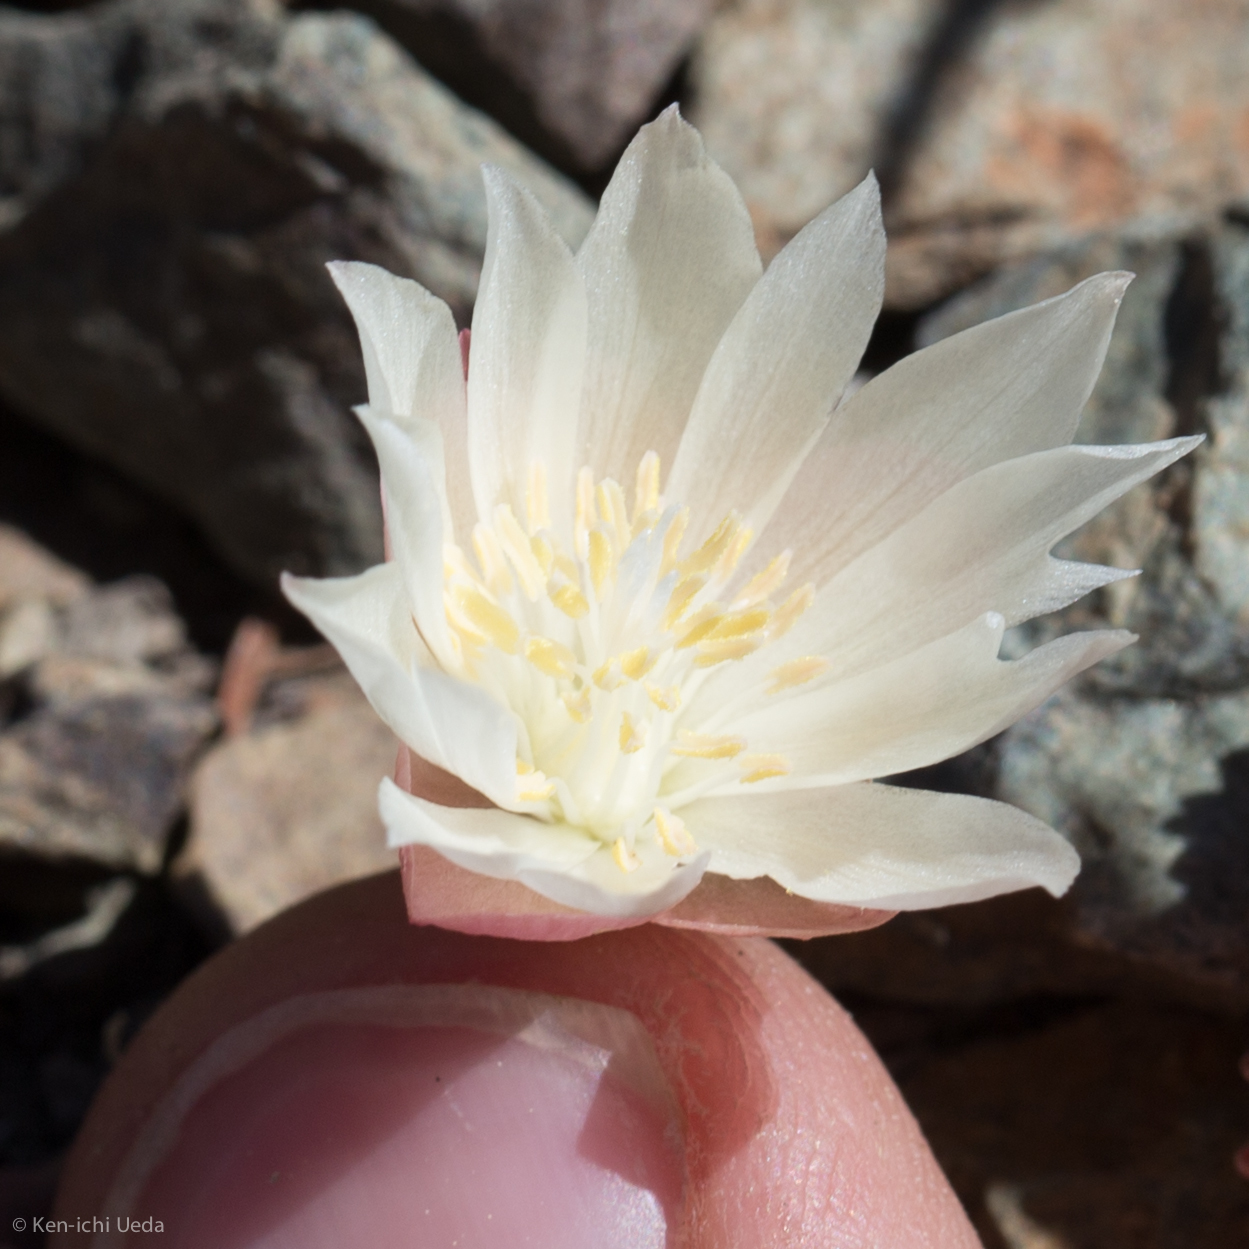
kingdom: Plantae
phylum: Tracheophyta
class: Magnoliopsida
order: Caryophyllales
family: Montiaceae
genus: Lewisia
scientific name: Lewisia rediviva
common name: Bitter-root
